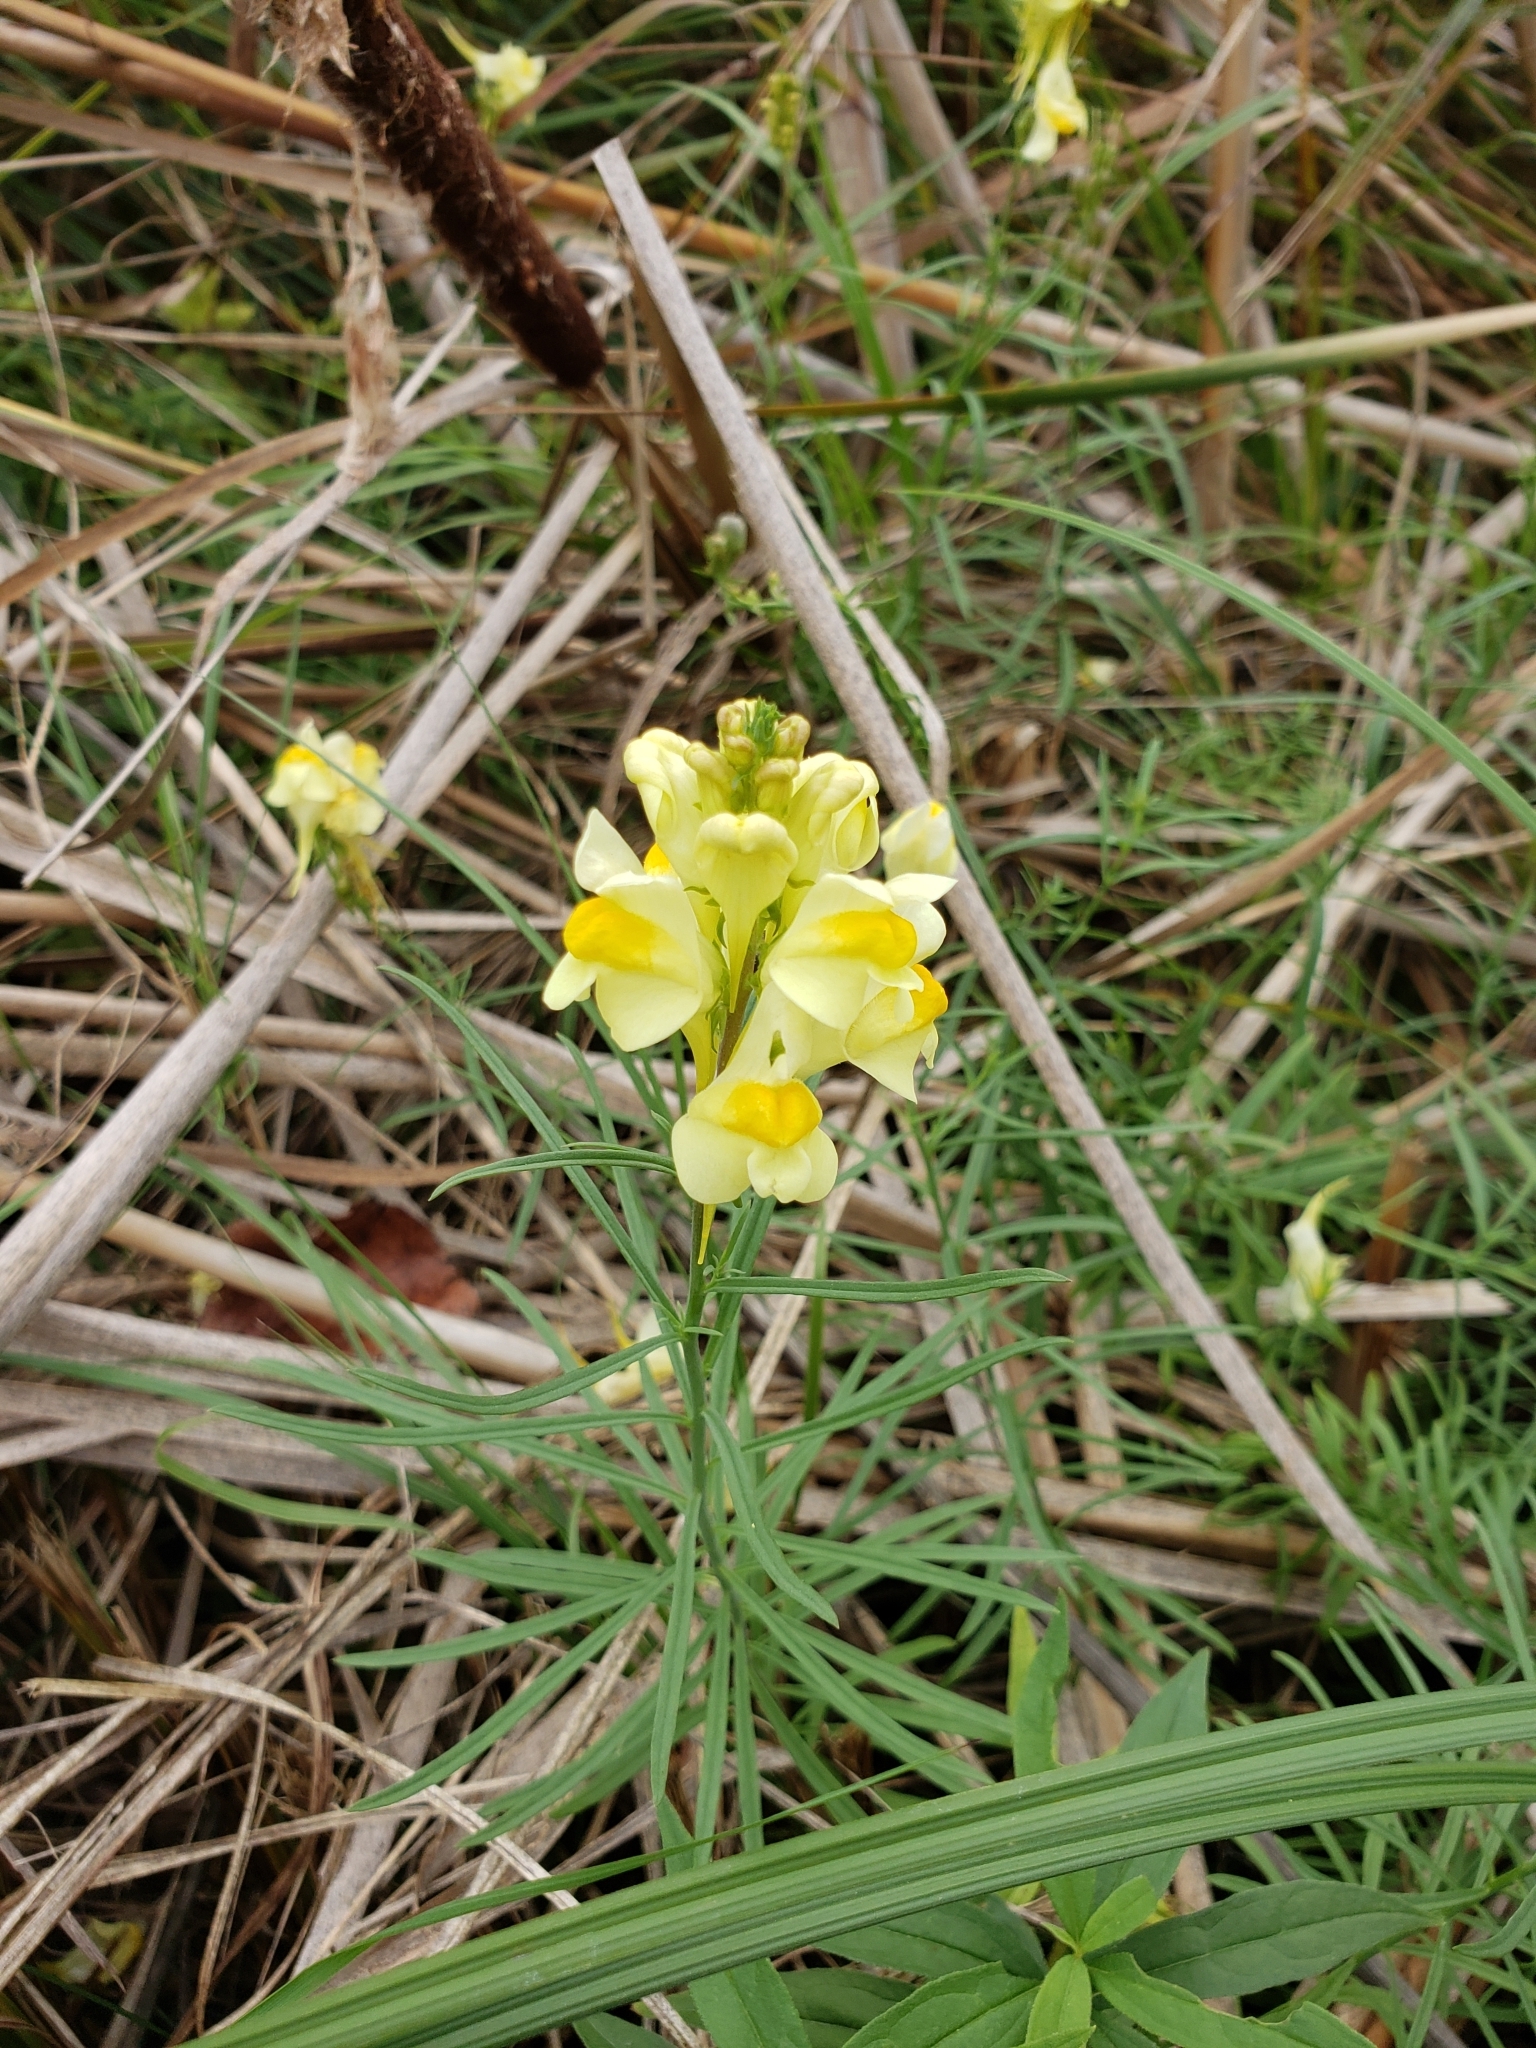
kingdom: Plantae
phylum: Tracheophyta
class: Magnoliopsida
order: Lamiales
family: Plantaginaceae
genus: Linaria
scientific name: Linaria vulgaris
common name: Butter and eggs
